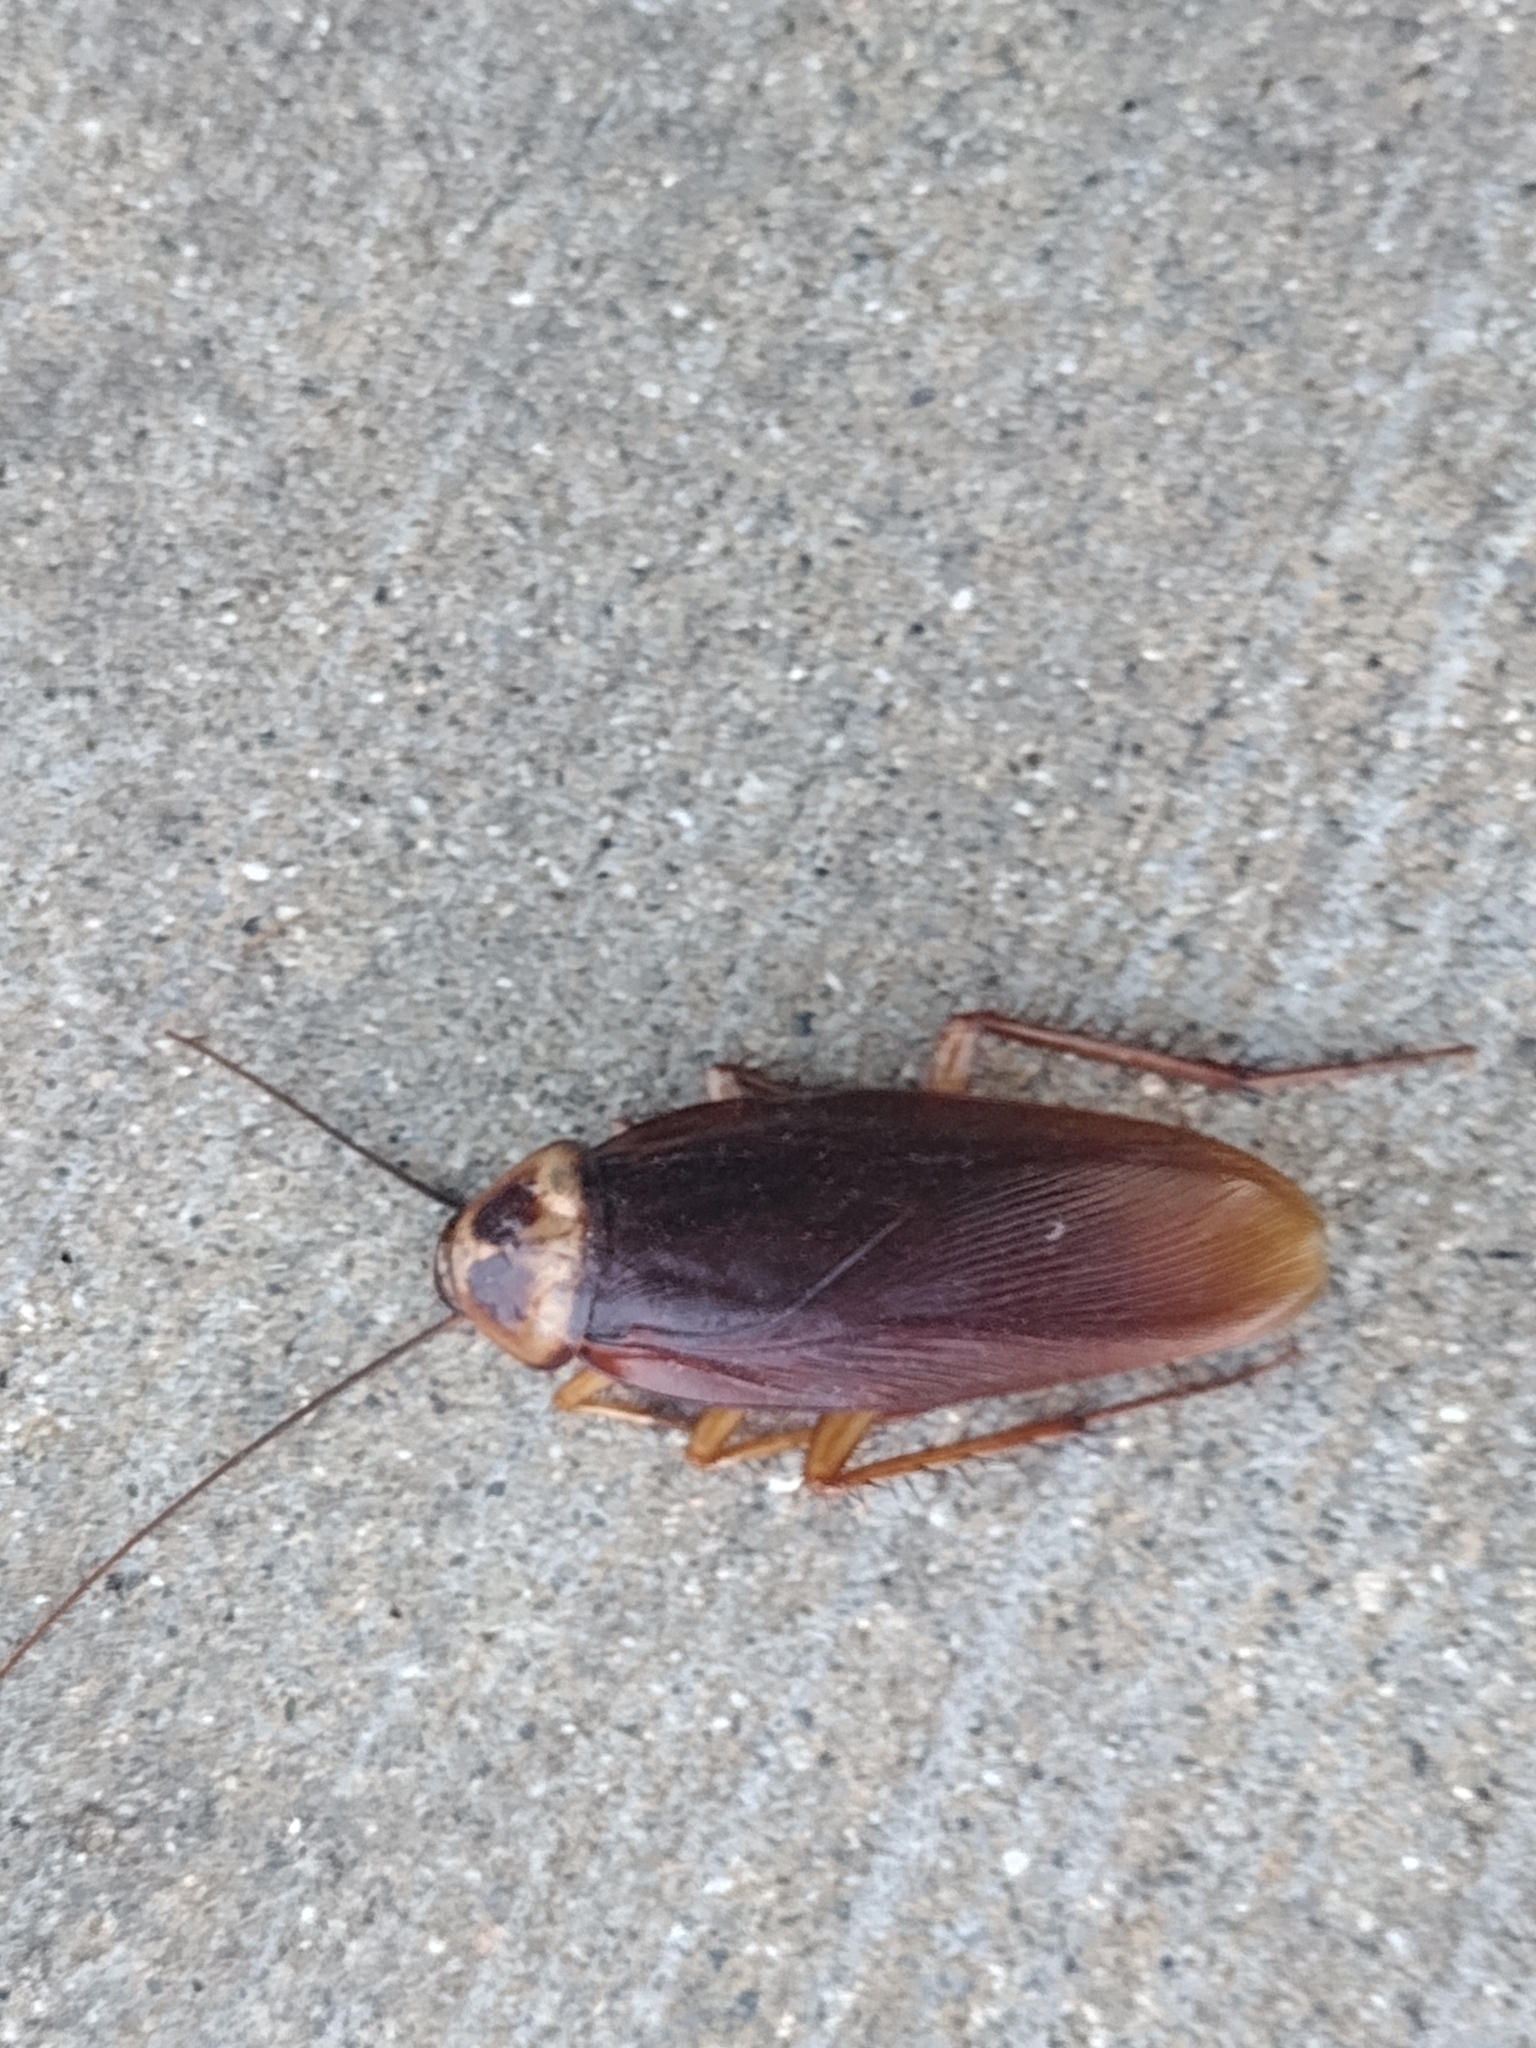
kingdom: Animalia
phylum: Arthropoda
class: Insecta
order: Blattodea
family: Blattidae
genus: Periplaneta
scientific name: Periplaneta americana
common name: American cockroach
